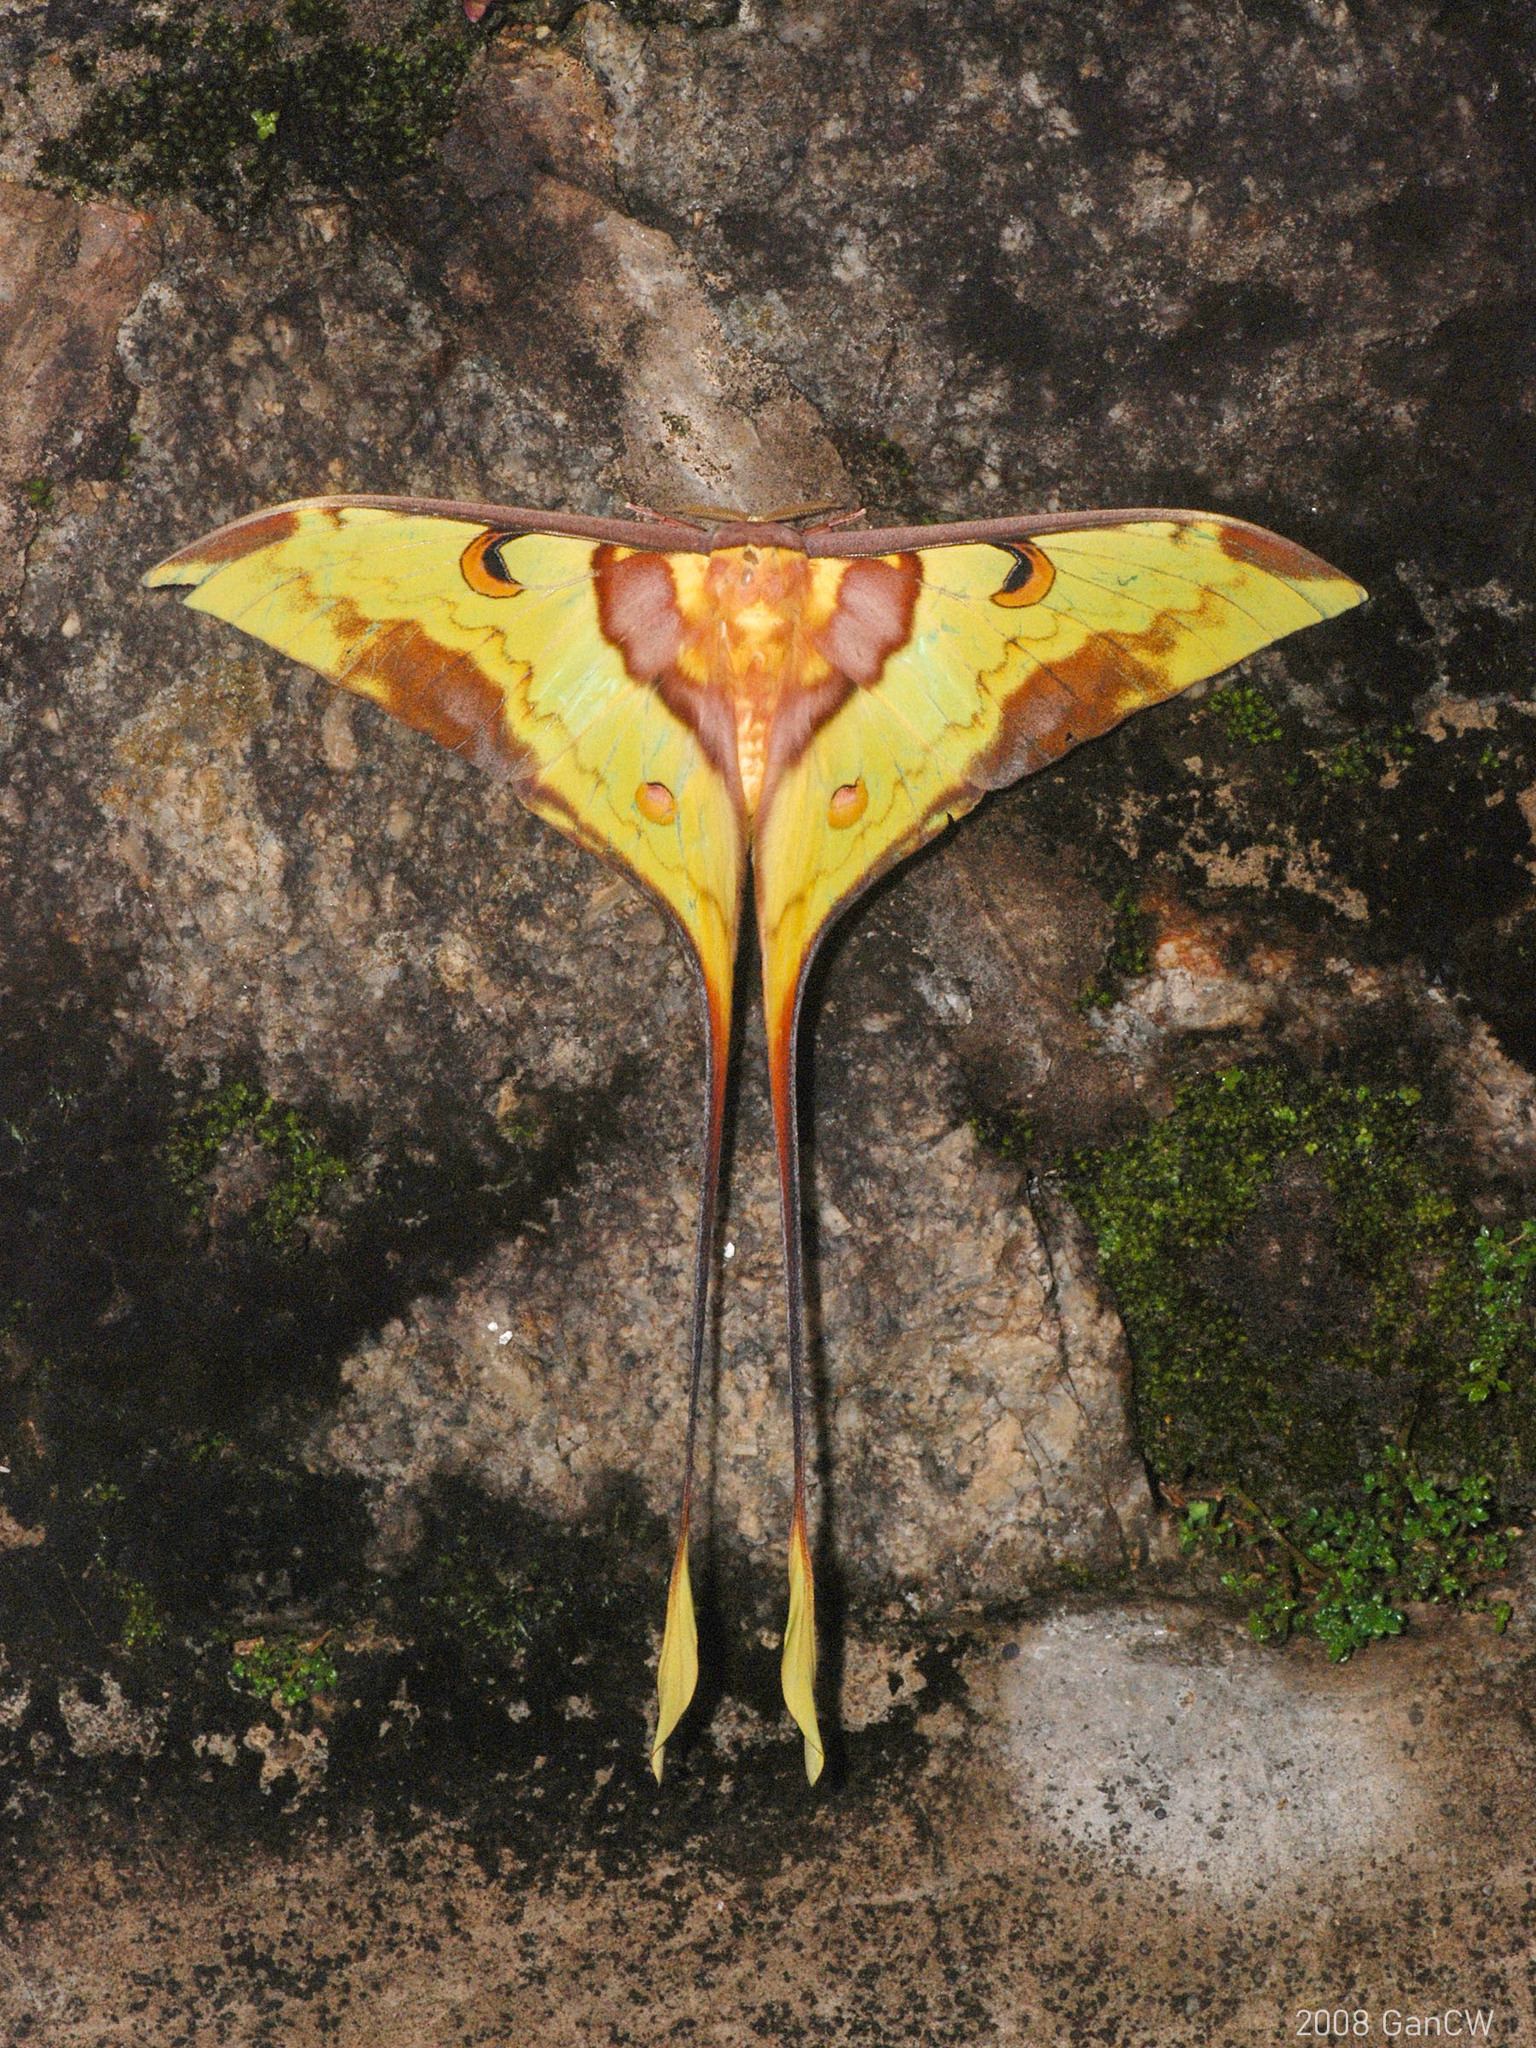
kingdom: Animalia
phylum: Arthropoda
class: Insecta
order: Lepidoptera
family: Saturniidae
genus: Actias
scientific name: Actias maenas
